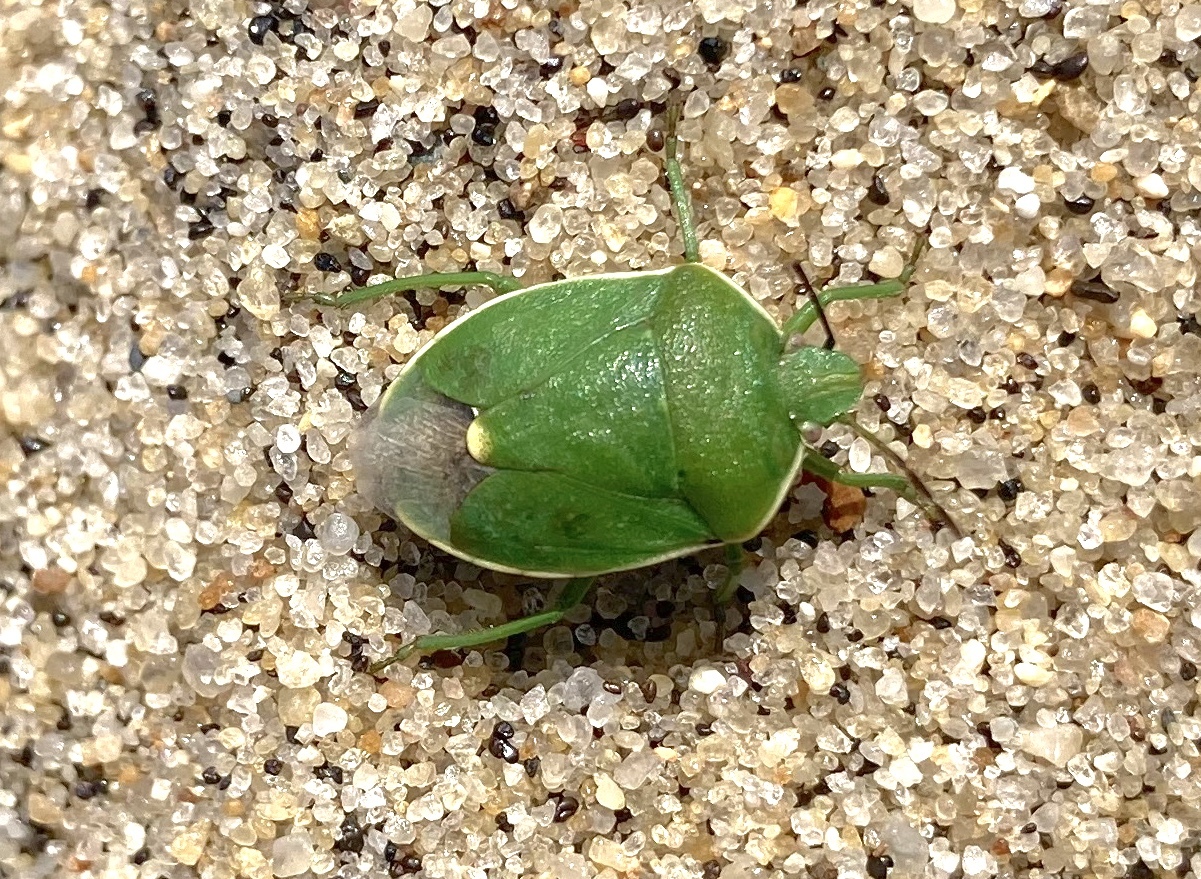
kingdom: Animalia
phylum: Arthropoda
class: Insecta
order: Hemiptera
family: Pentatomidae
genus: Chlorochroa
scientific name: Chlorochroa persimilis
